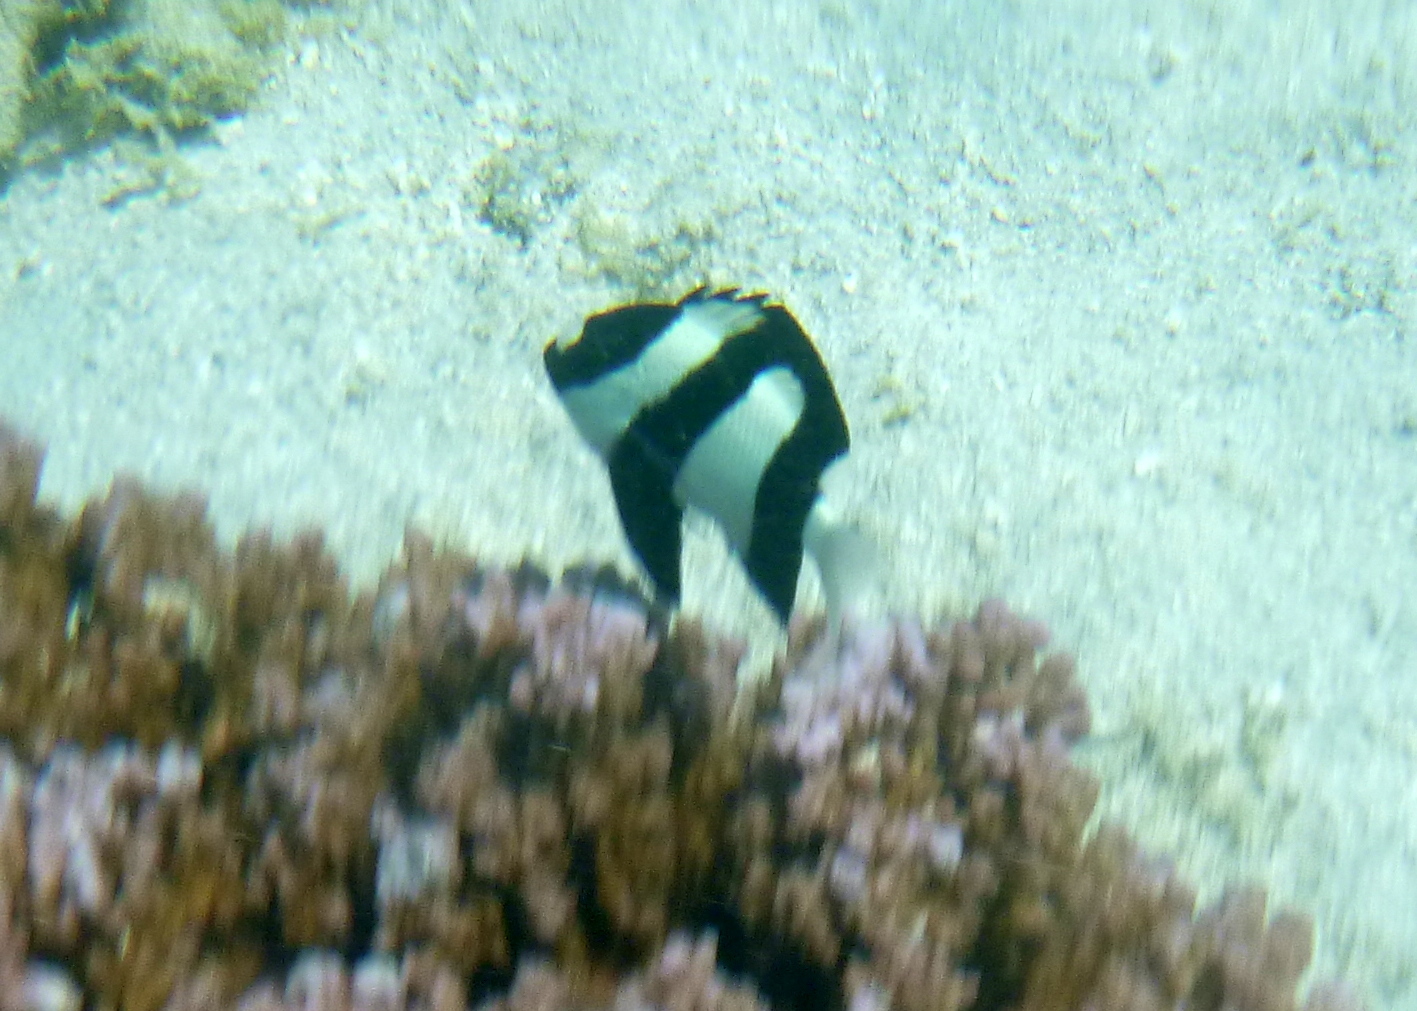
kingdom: Animalia
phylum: Chordata
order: Perciformes
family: Pomacentridae
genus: Dascyllus
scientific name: Dascyllus aruanus
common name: Humbug dascyllus
